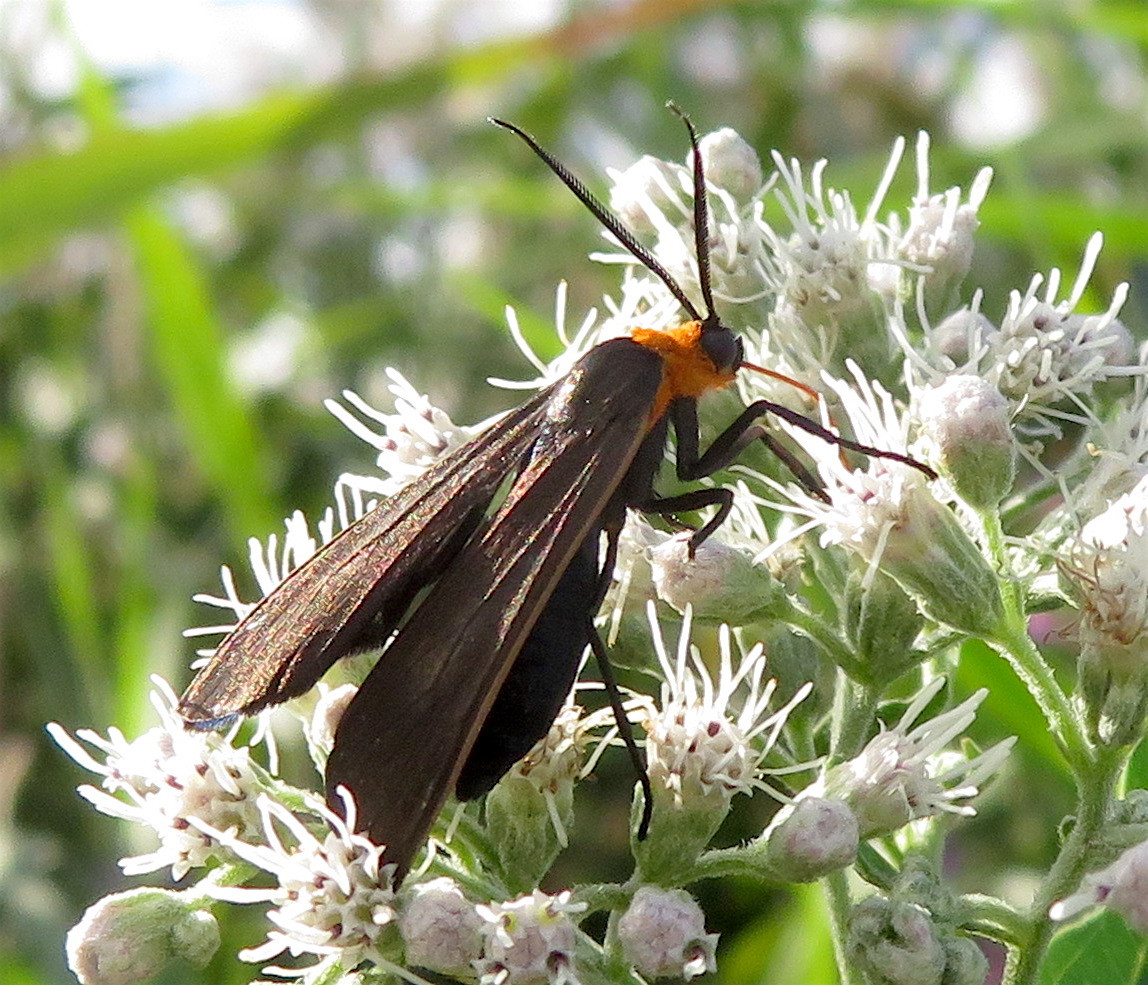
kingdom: Animalia
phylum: Arthropoda
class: Insecta
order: Lepidoptera
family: Erebidae
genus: Cisseps
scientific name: Cisseps fulvicollis
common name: Yellow-collared scape moth
